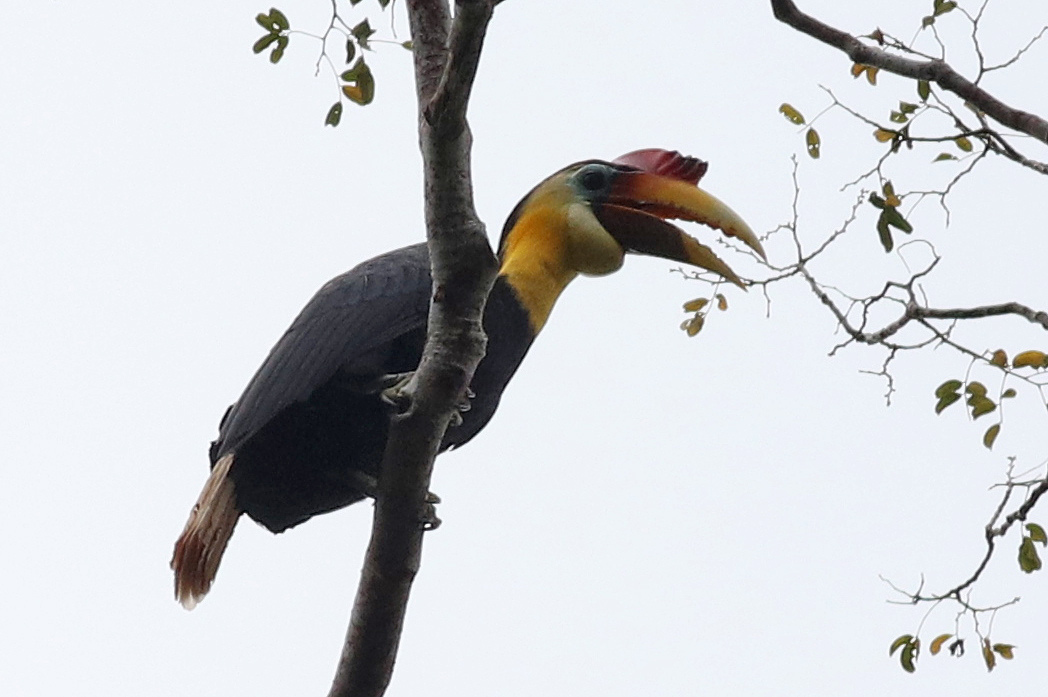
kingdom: Animalia
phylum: Chordata
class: Aves
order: Bucerotiformes
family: Bucerotidae
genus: Rhabdotorrhinus
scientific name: Rhabdotorrhinus corrugatus
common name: Wrinkled hornbill
